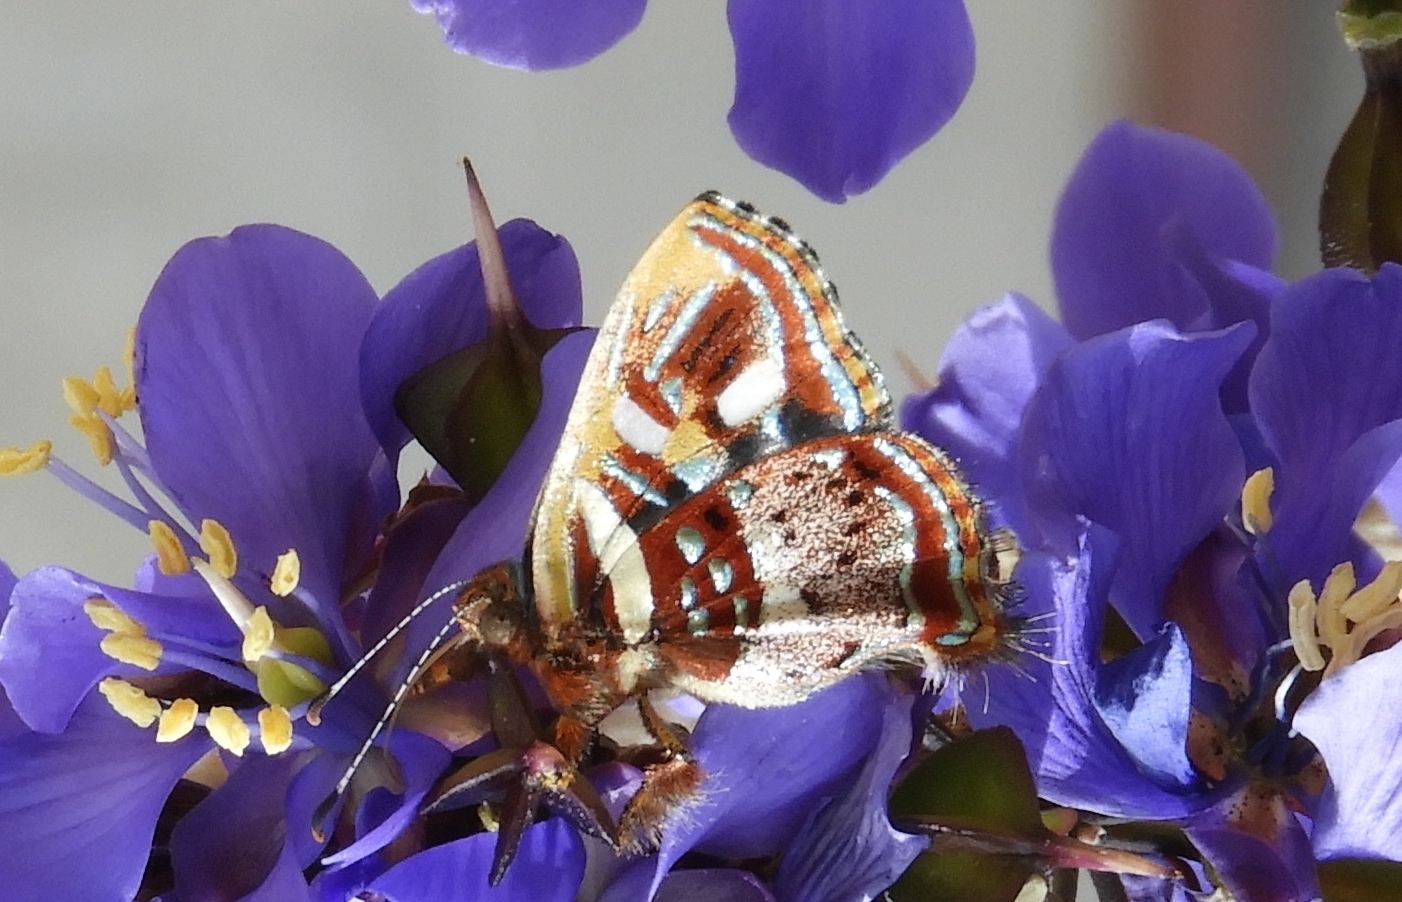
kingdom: Animalia
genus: Anteros
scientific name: Anteros carausius
